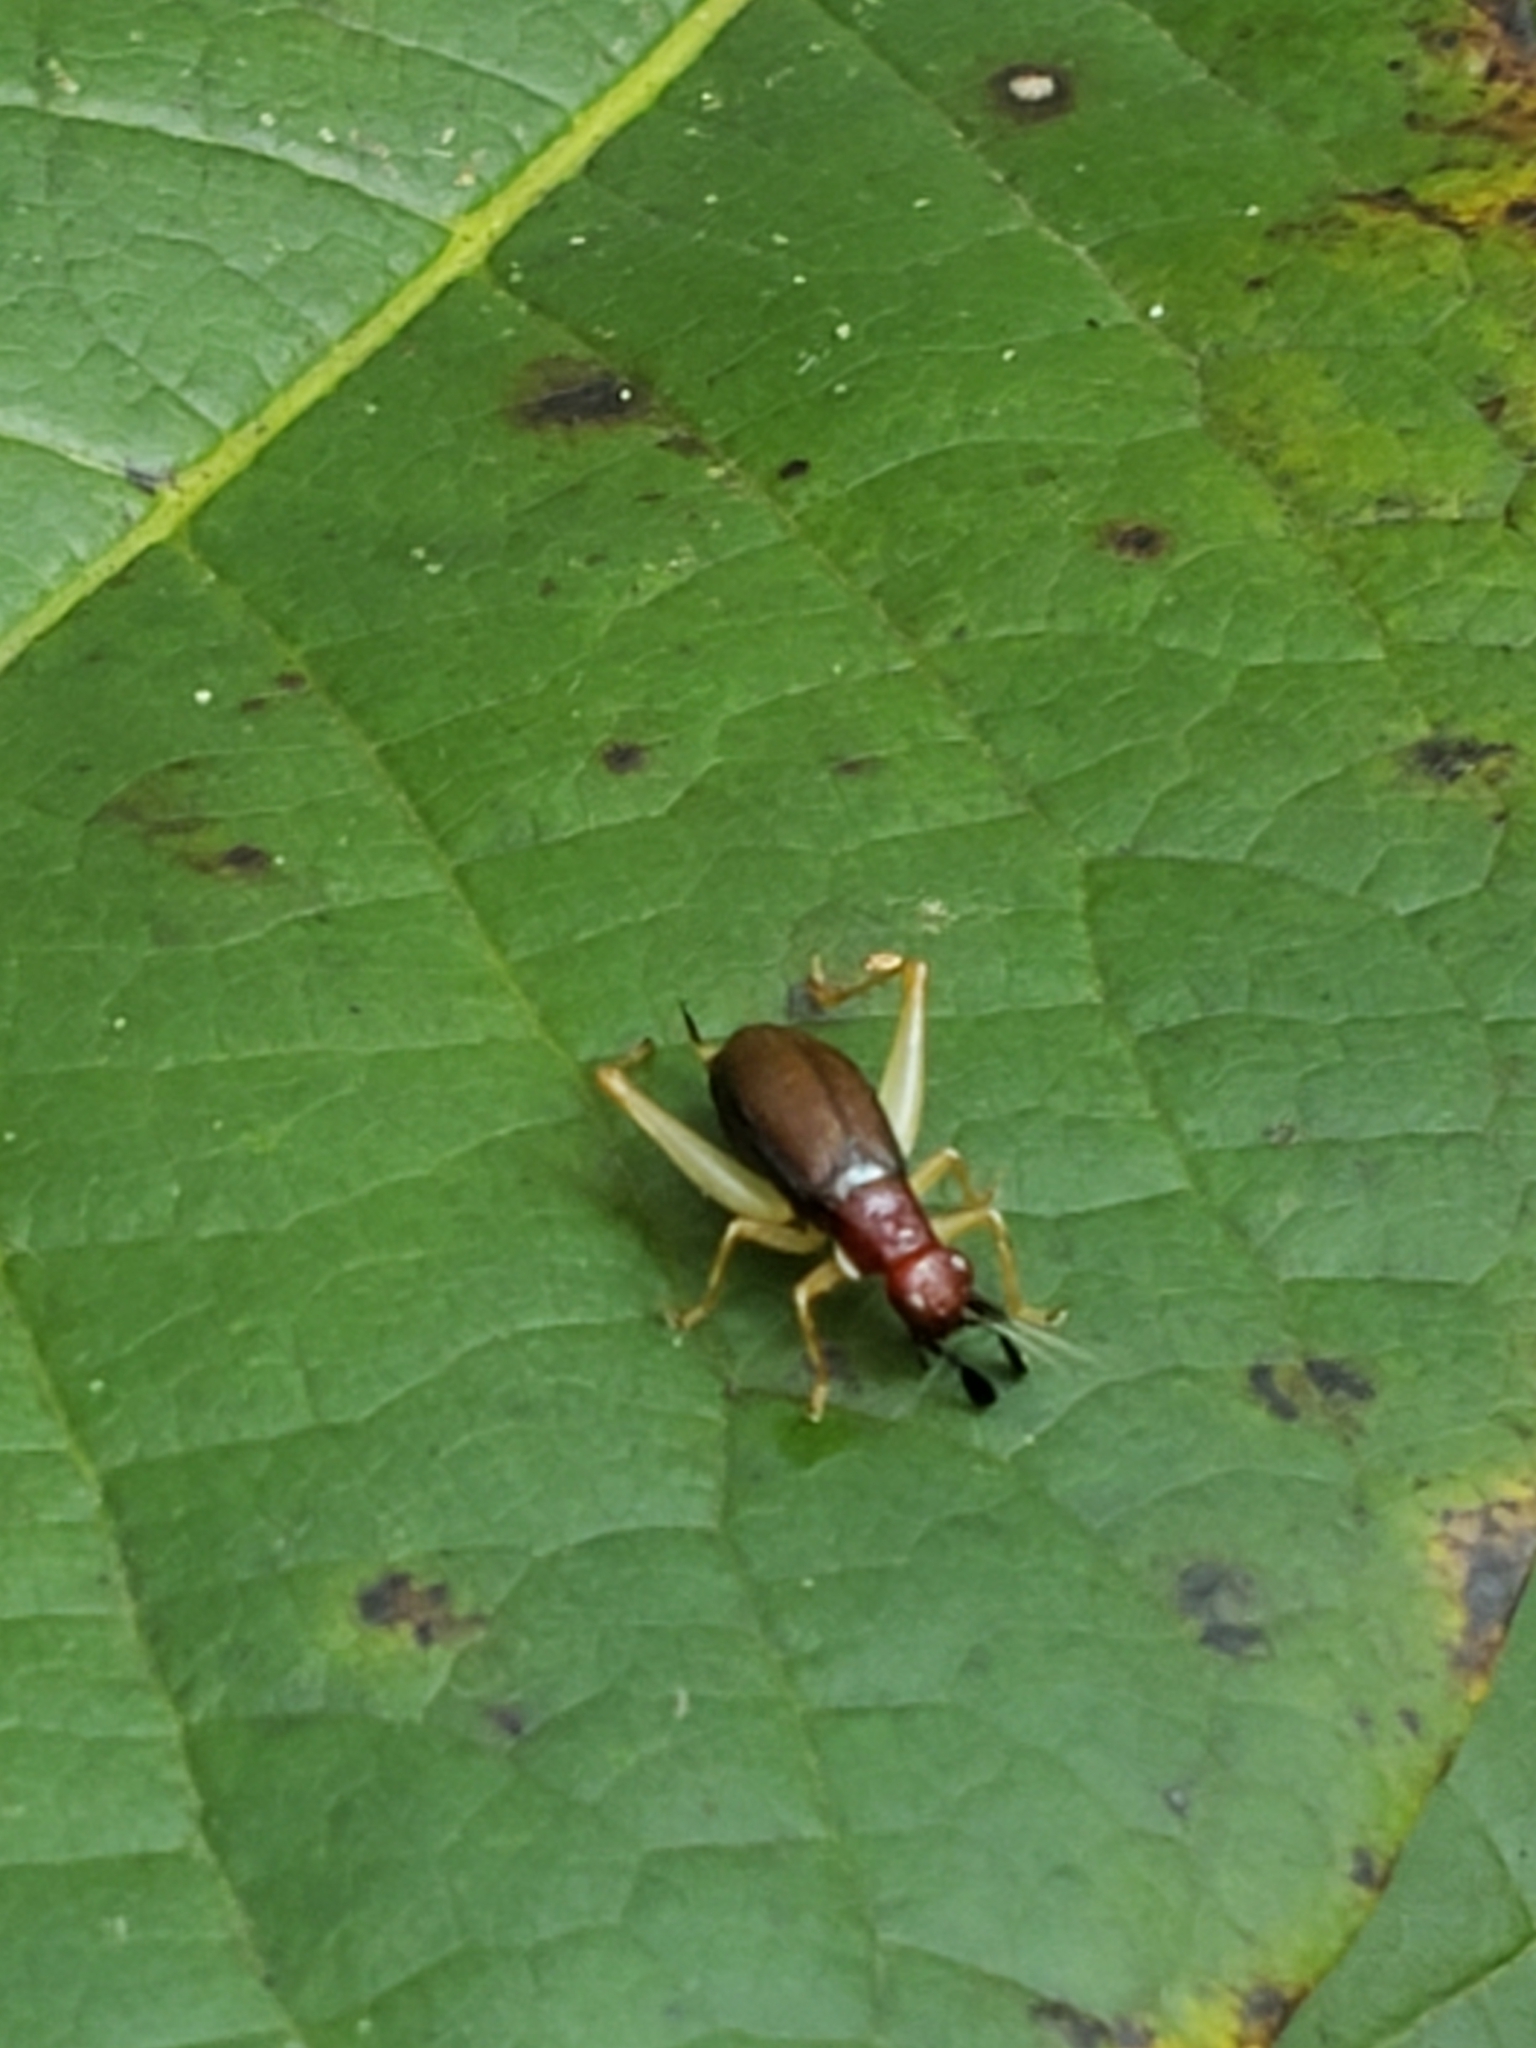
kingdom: Animalia
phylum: Arthropoda
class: Insecta
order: Orthoptera
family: Trigonidiidae
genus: Phyllopalpus
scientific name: Phyllopalpus pulchellus
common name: Handsome trig
